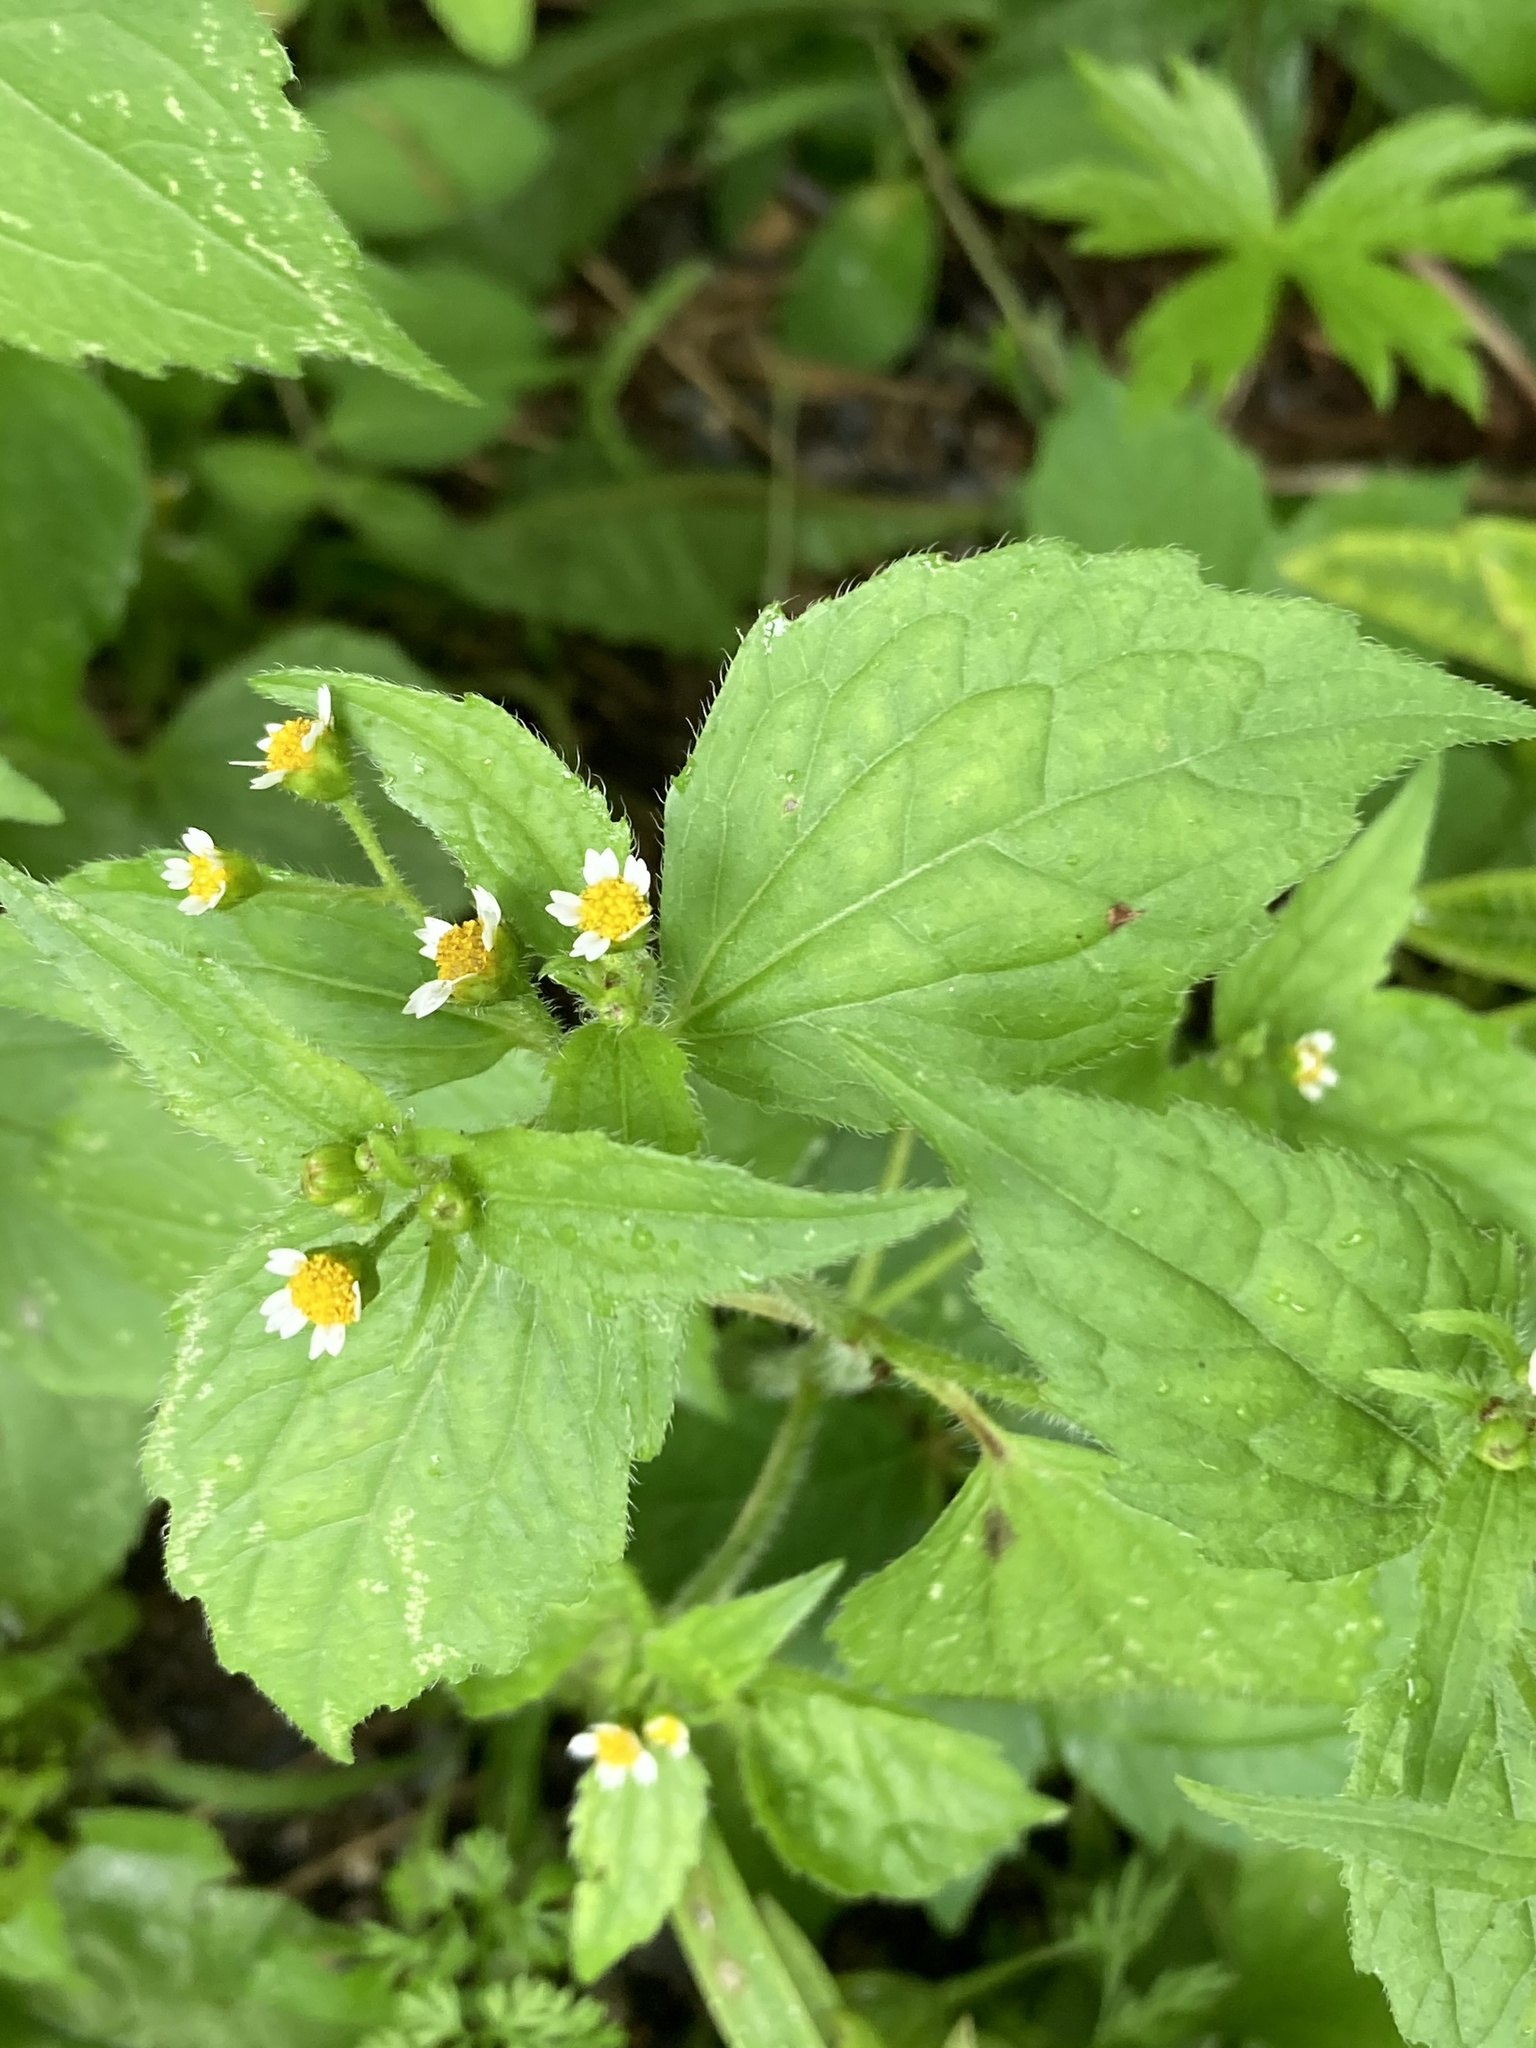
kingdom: Plantae
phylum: Tracheophyta
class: Magnoliopsida
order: Asterales
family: Asteraceae
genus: Galinsoga
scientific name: Galinsoga quadriradiata
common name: Shaggy soldier
